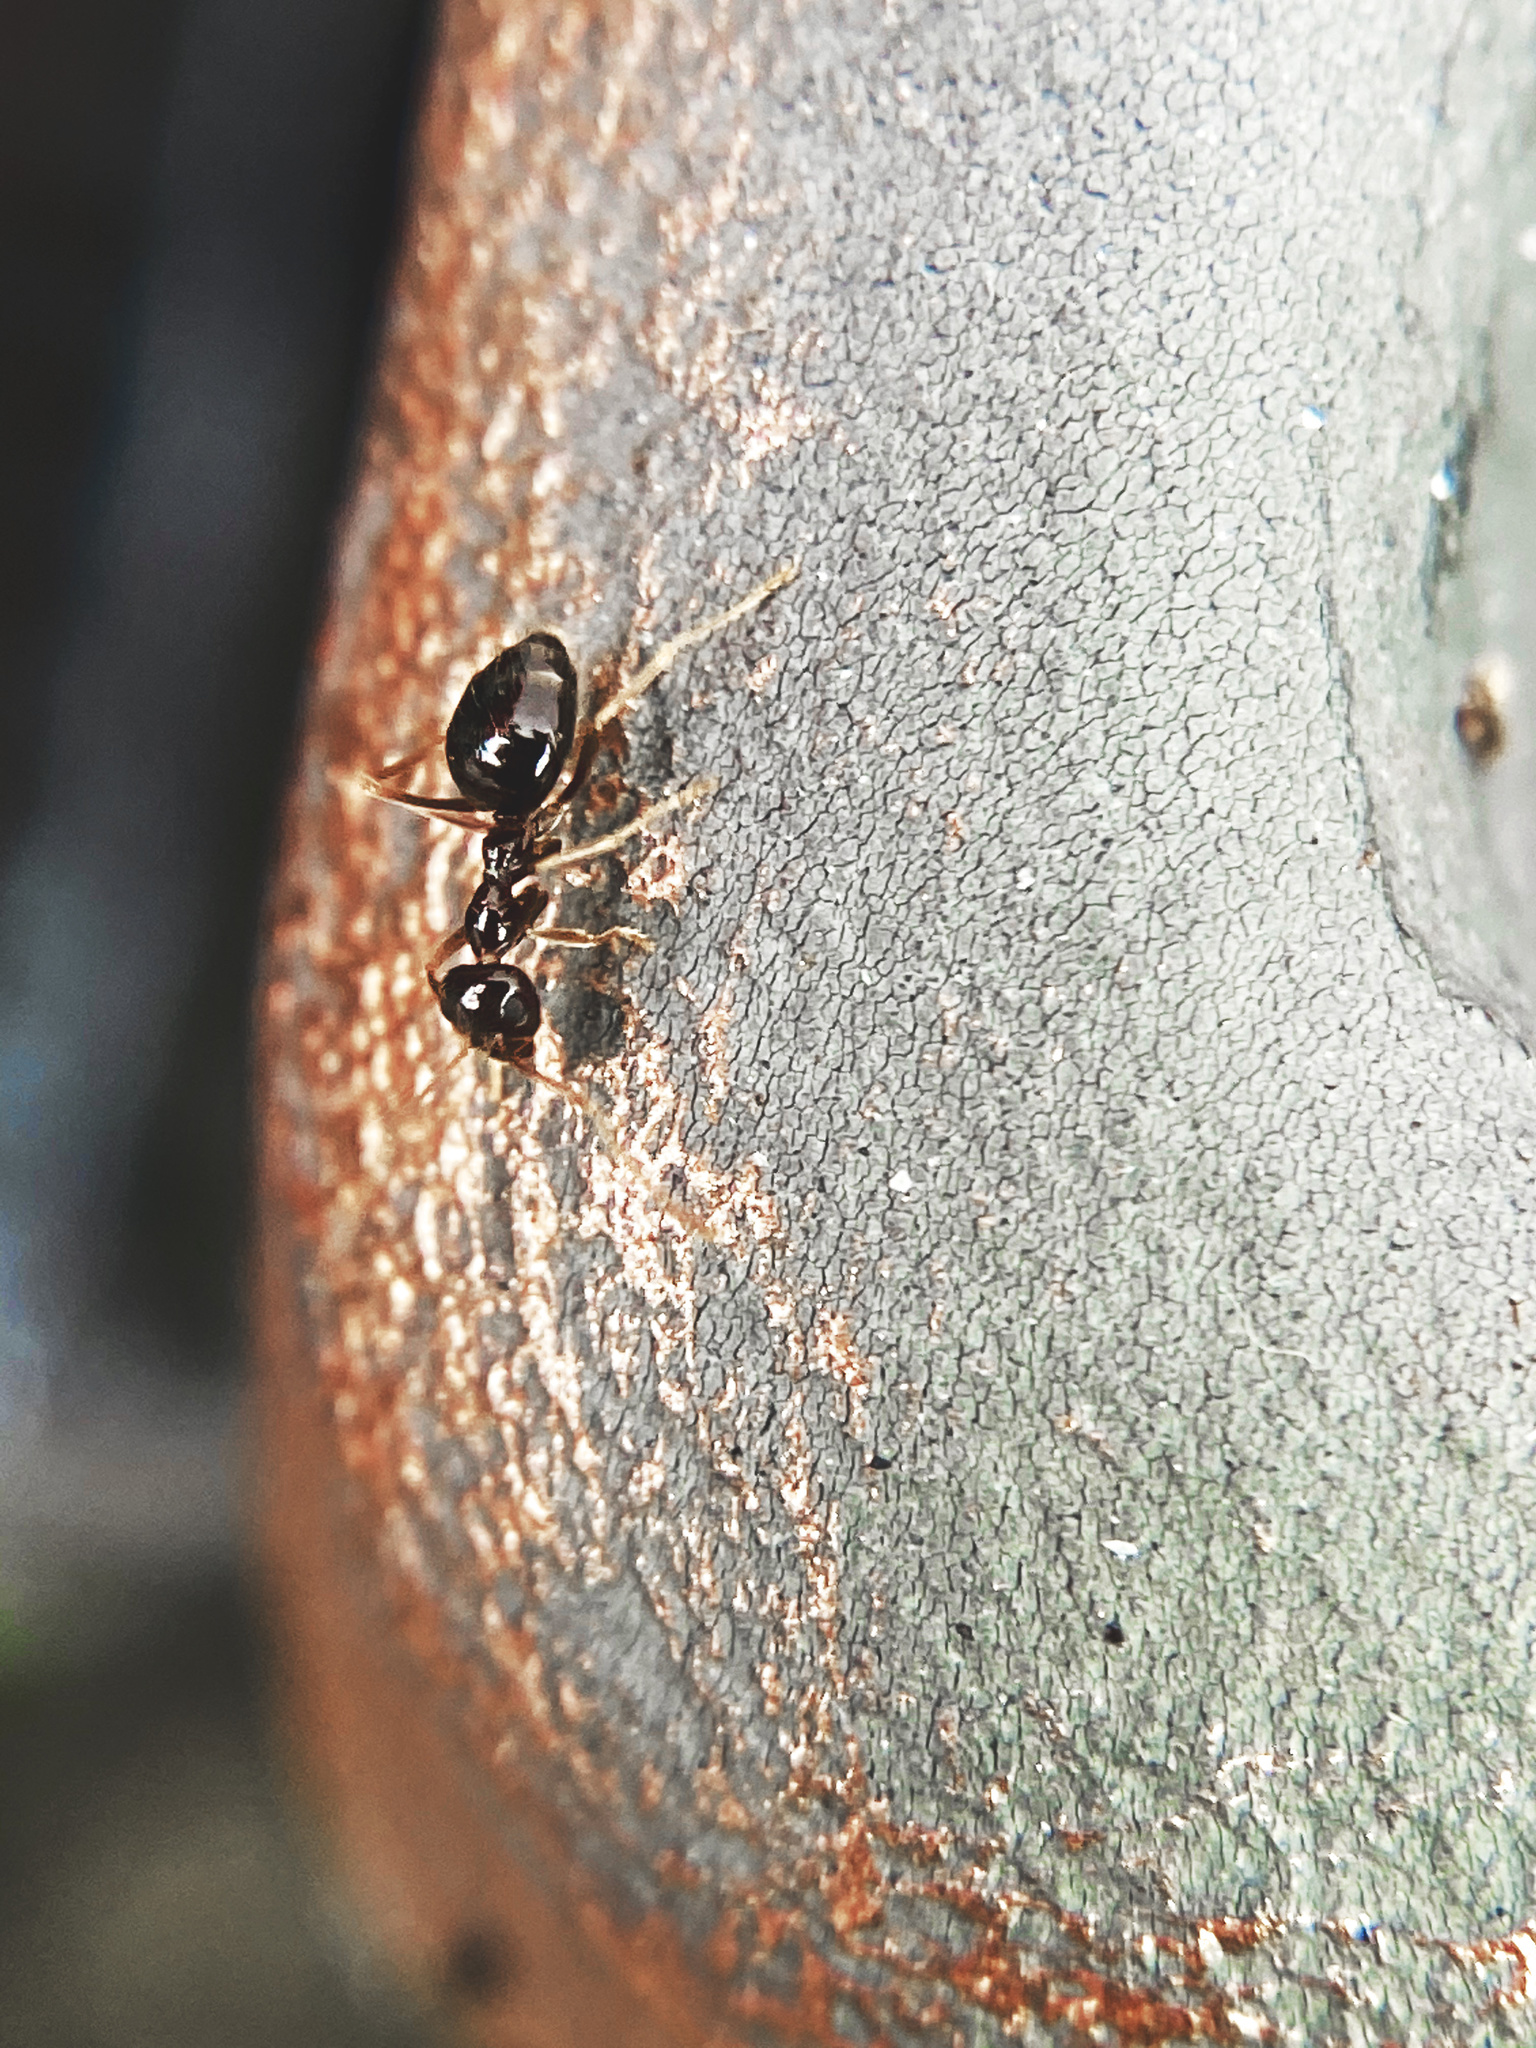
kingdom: Animalia
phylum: Arthropoda
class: Insecta
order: Hymenoptera
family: Formicidae
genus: Prenolepis
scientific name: Prenolepis imparis
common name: Small honey ant
